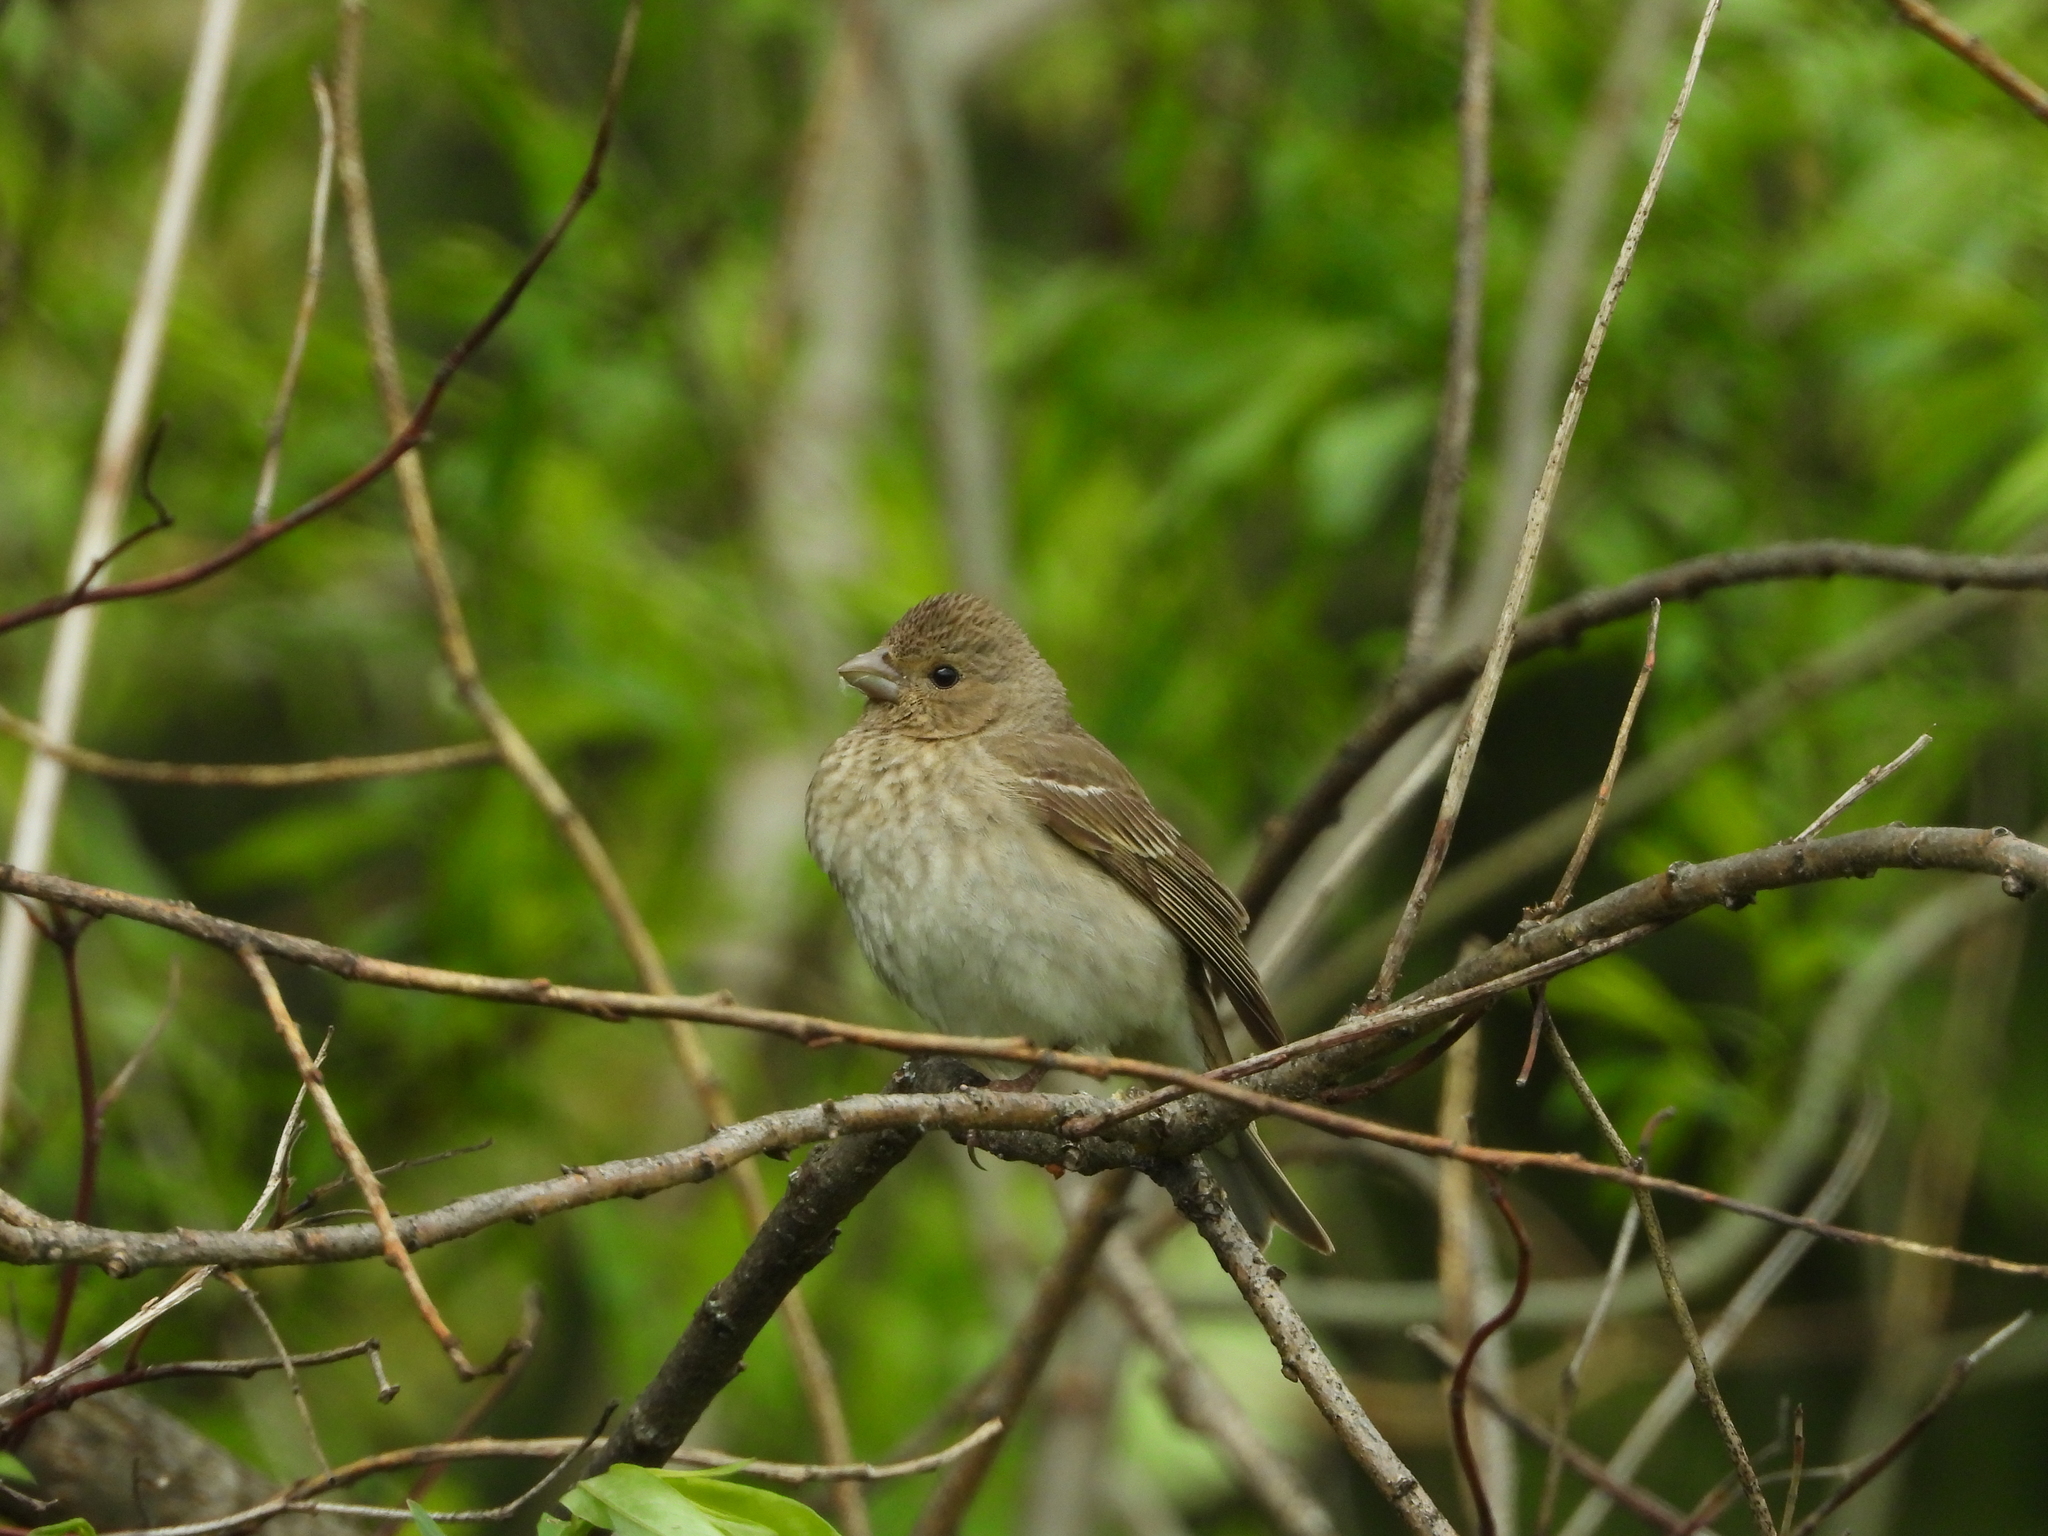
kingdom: Animalia
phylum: Chordata
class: Aves
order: Passeriformes
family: Fringillidae
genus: Carpodacus
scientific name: Carpodacus erythrinus
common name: Common rosefinch
